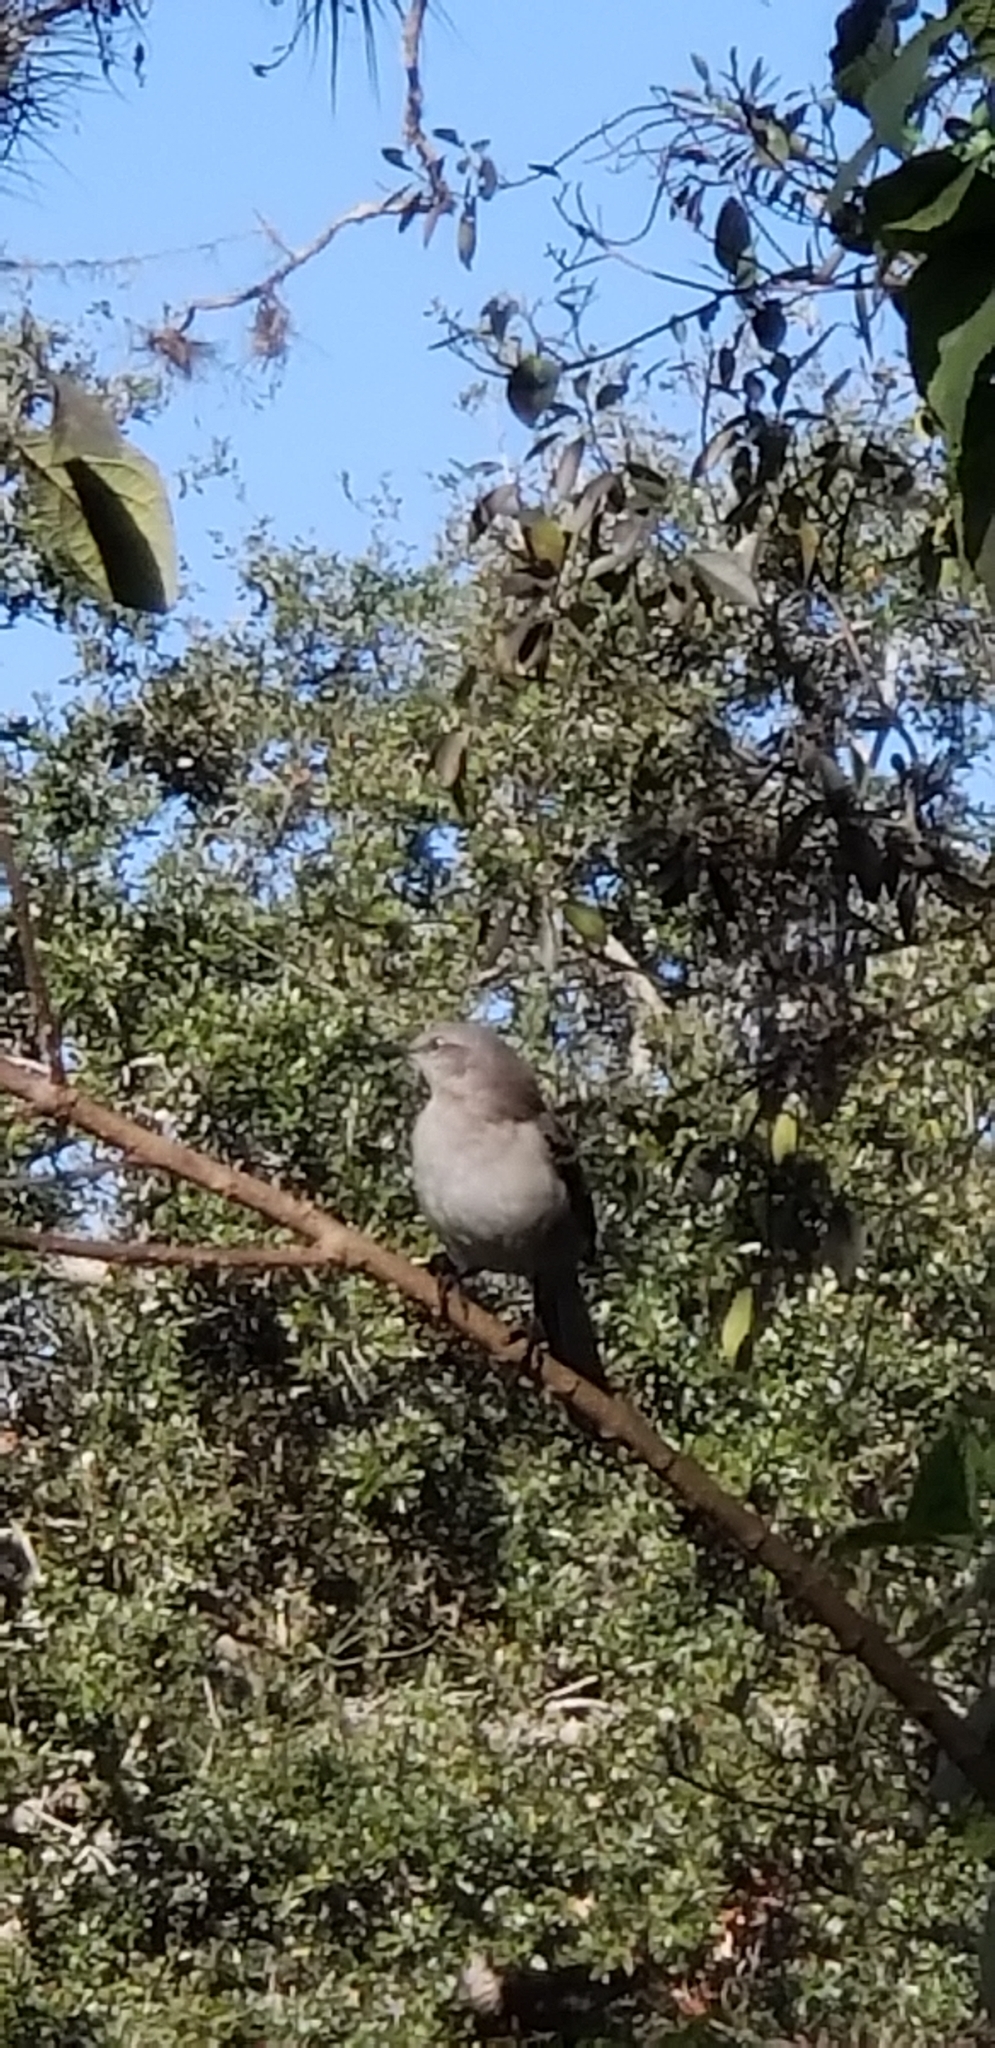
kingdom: Animalia
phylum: Chordata
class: Aves
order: Passeriformes
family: Mimidae
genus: Mimus
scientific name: Mimus polyglottos
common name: Northern mockingbird
